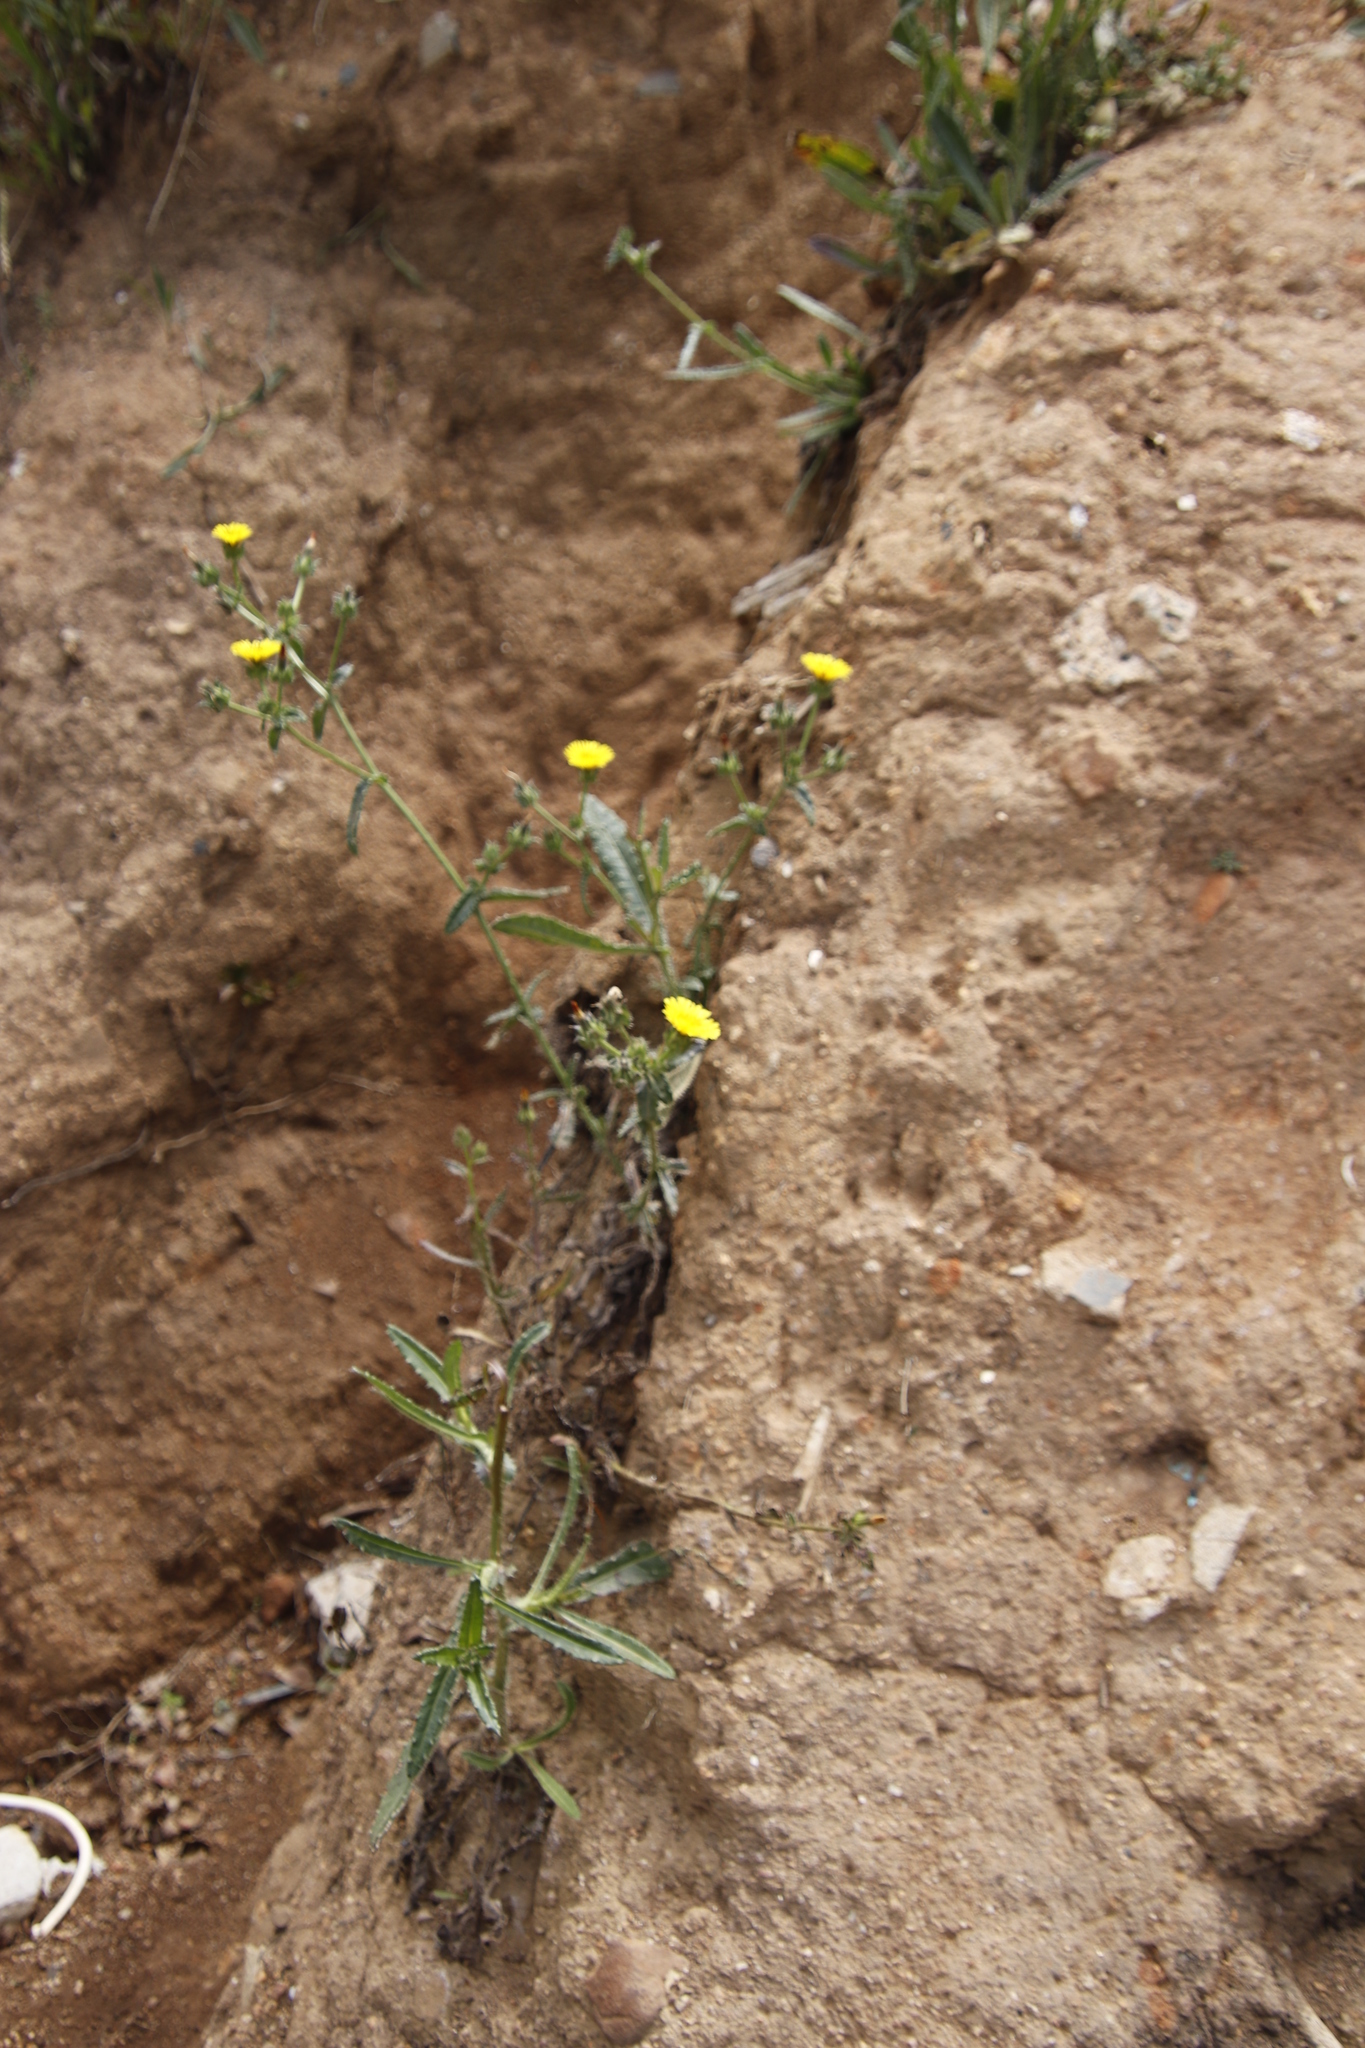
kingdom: Plantae
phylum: Tracheophyta
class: Magnoliopsida
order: Asterales
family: Asteraceae
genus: Helminthotheca
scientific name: Helminthotheca echioides
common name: Ox-tongue
